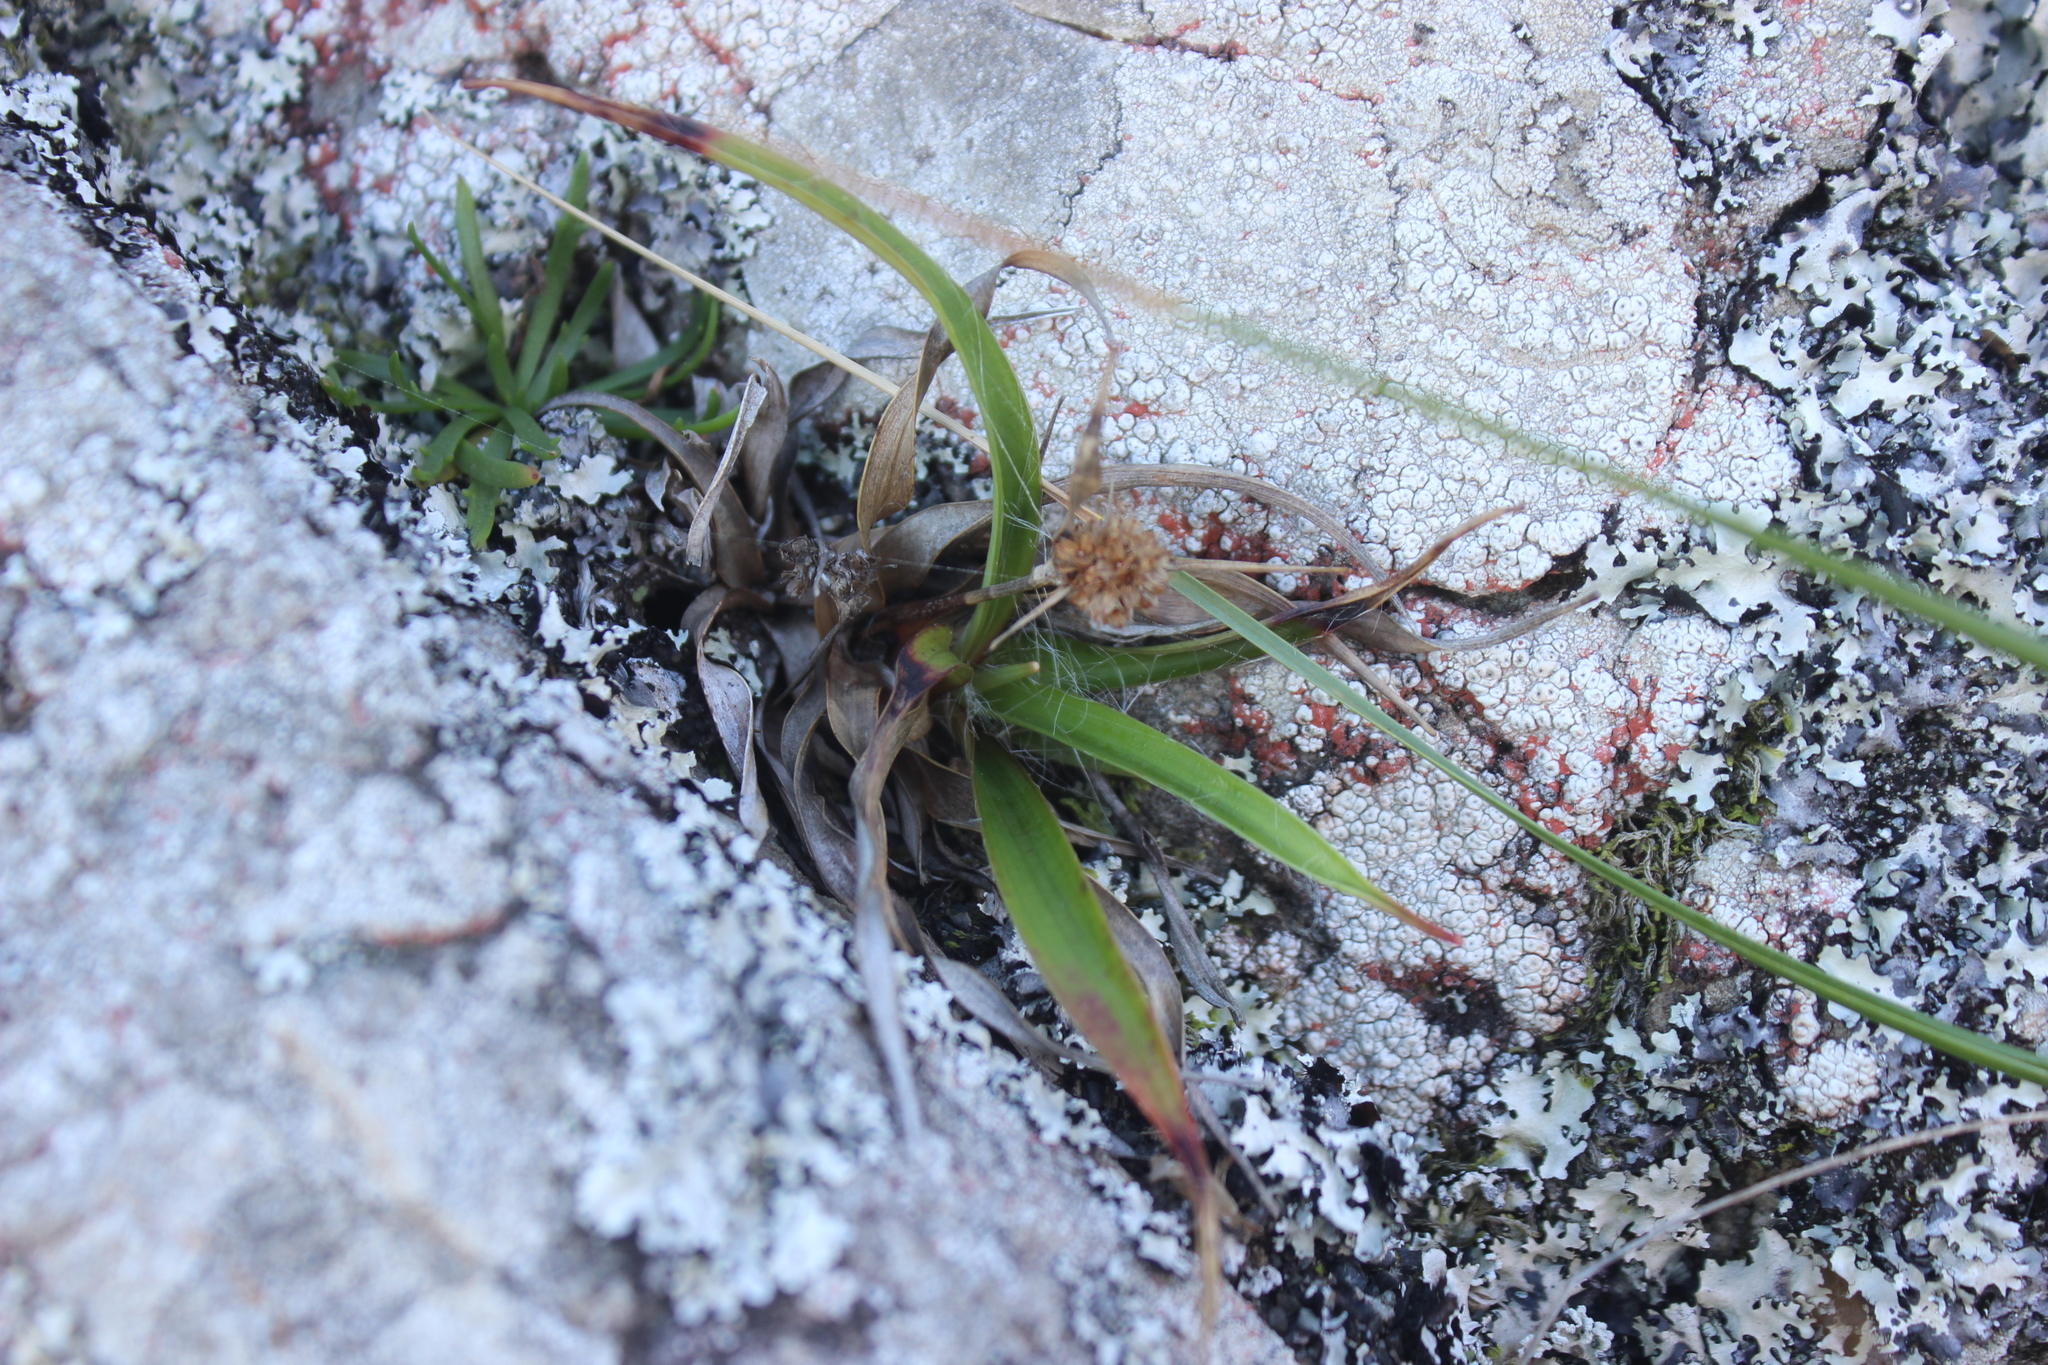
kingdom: Plantae
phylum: Tracheophyta
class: Liliopsida
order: Poales
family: Juncaceae
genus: Luzula
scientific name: Luzula banksiana
